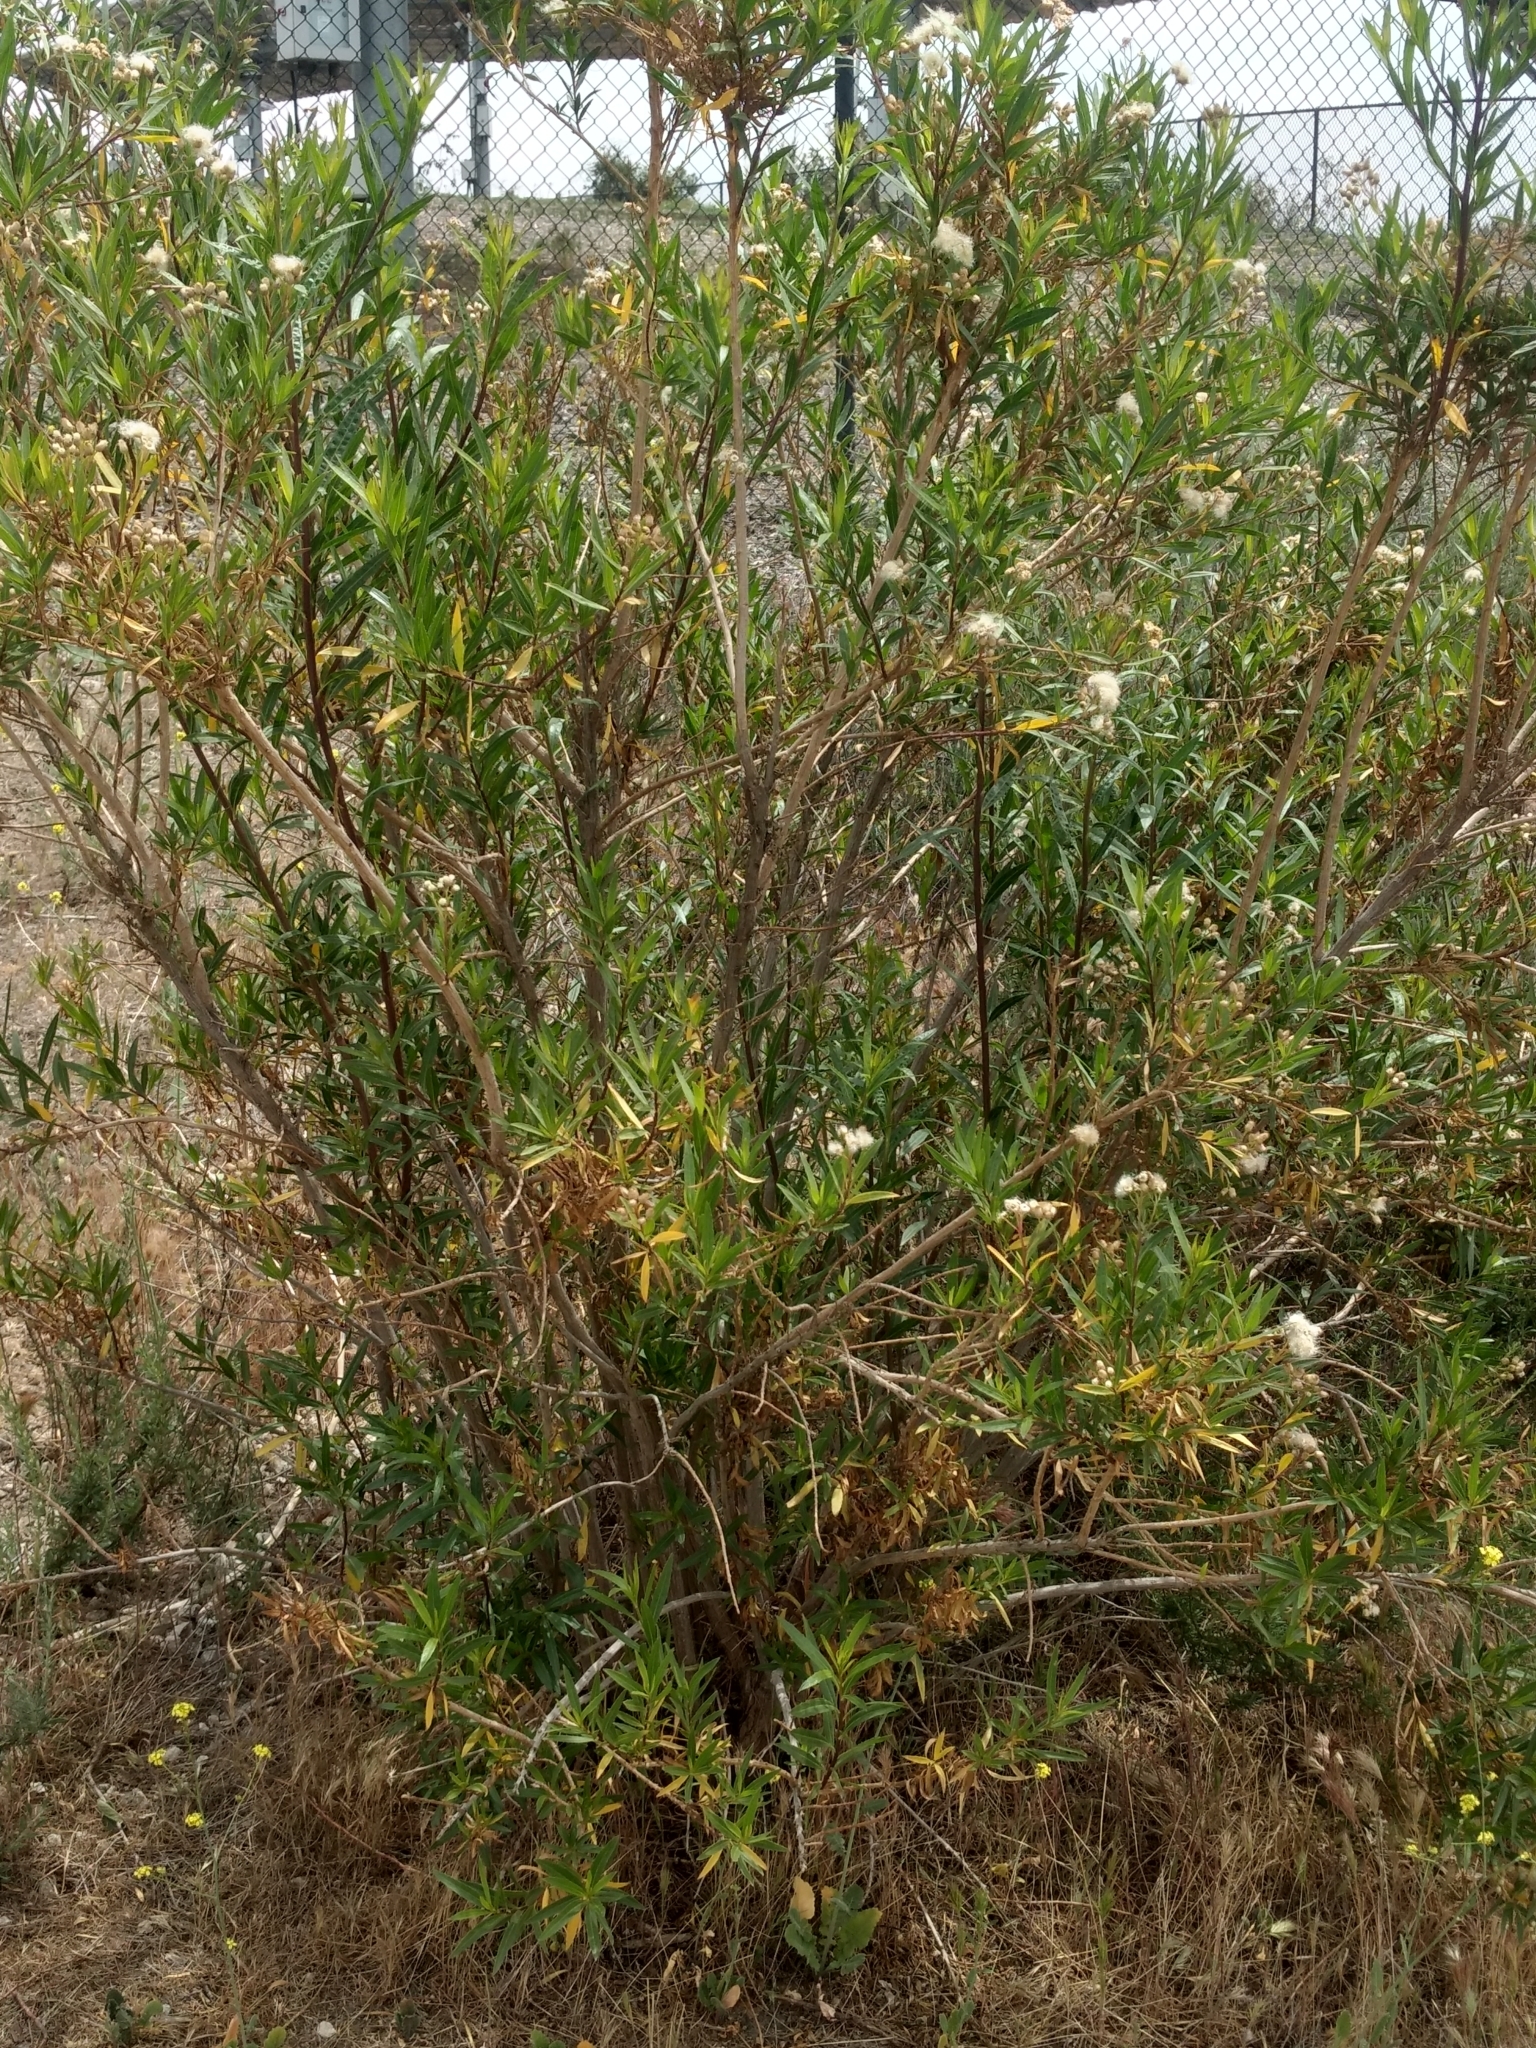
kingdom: Plantae
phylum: Tracheophyta
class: Magnoliopsida
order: Asterales
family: Asteraceae
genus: Baccharis
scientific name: Baccharis salicifolia
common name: Sticky baccharis
